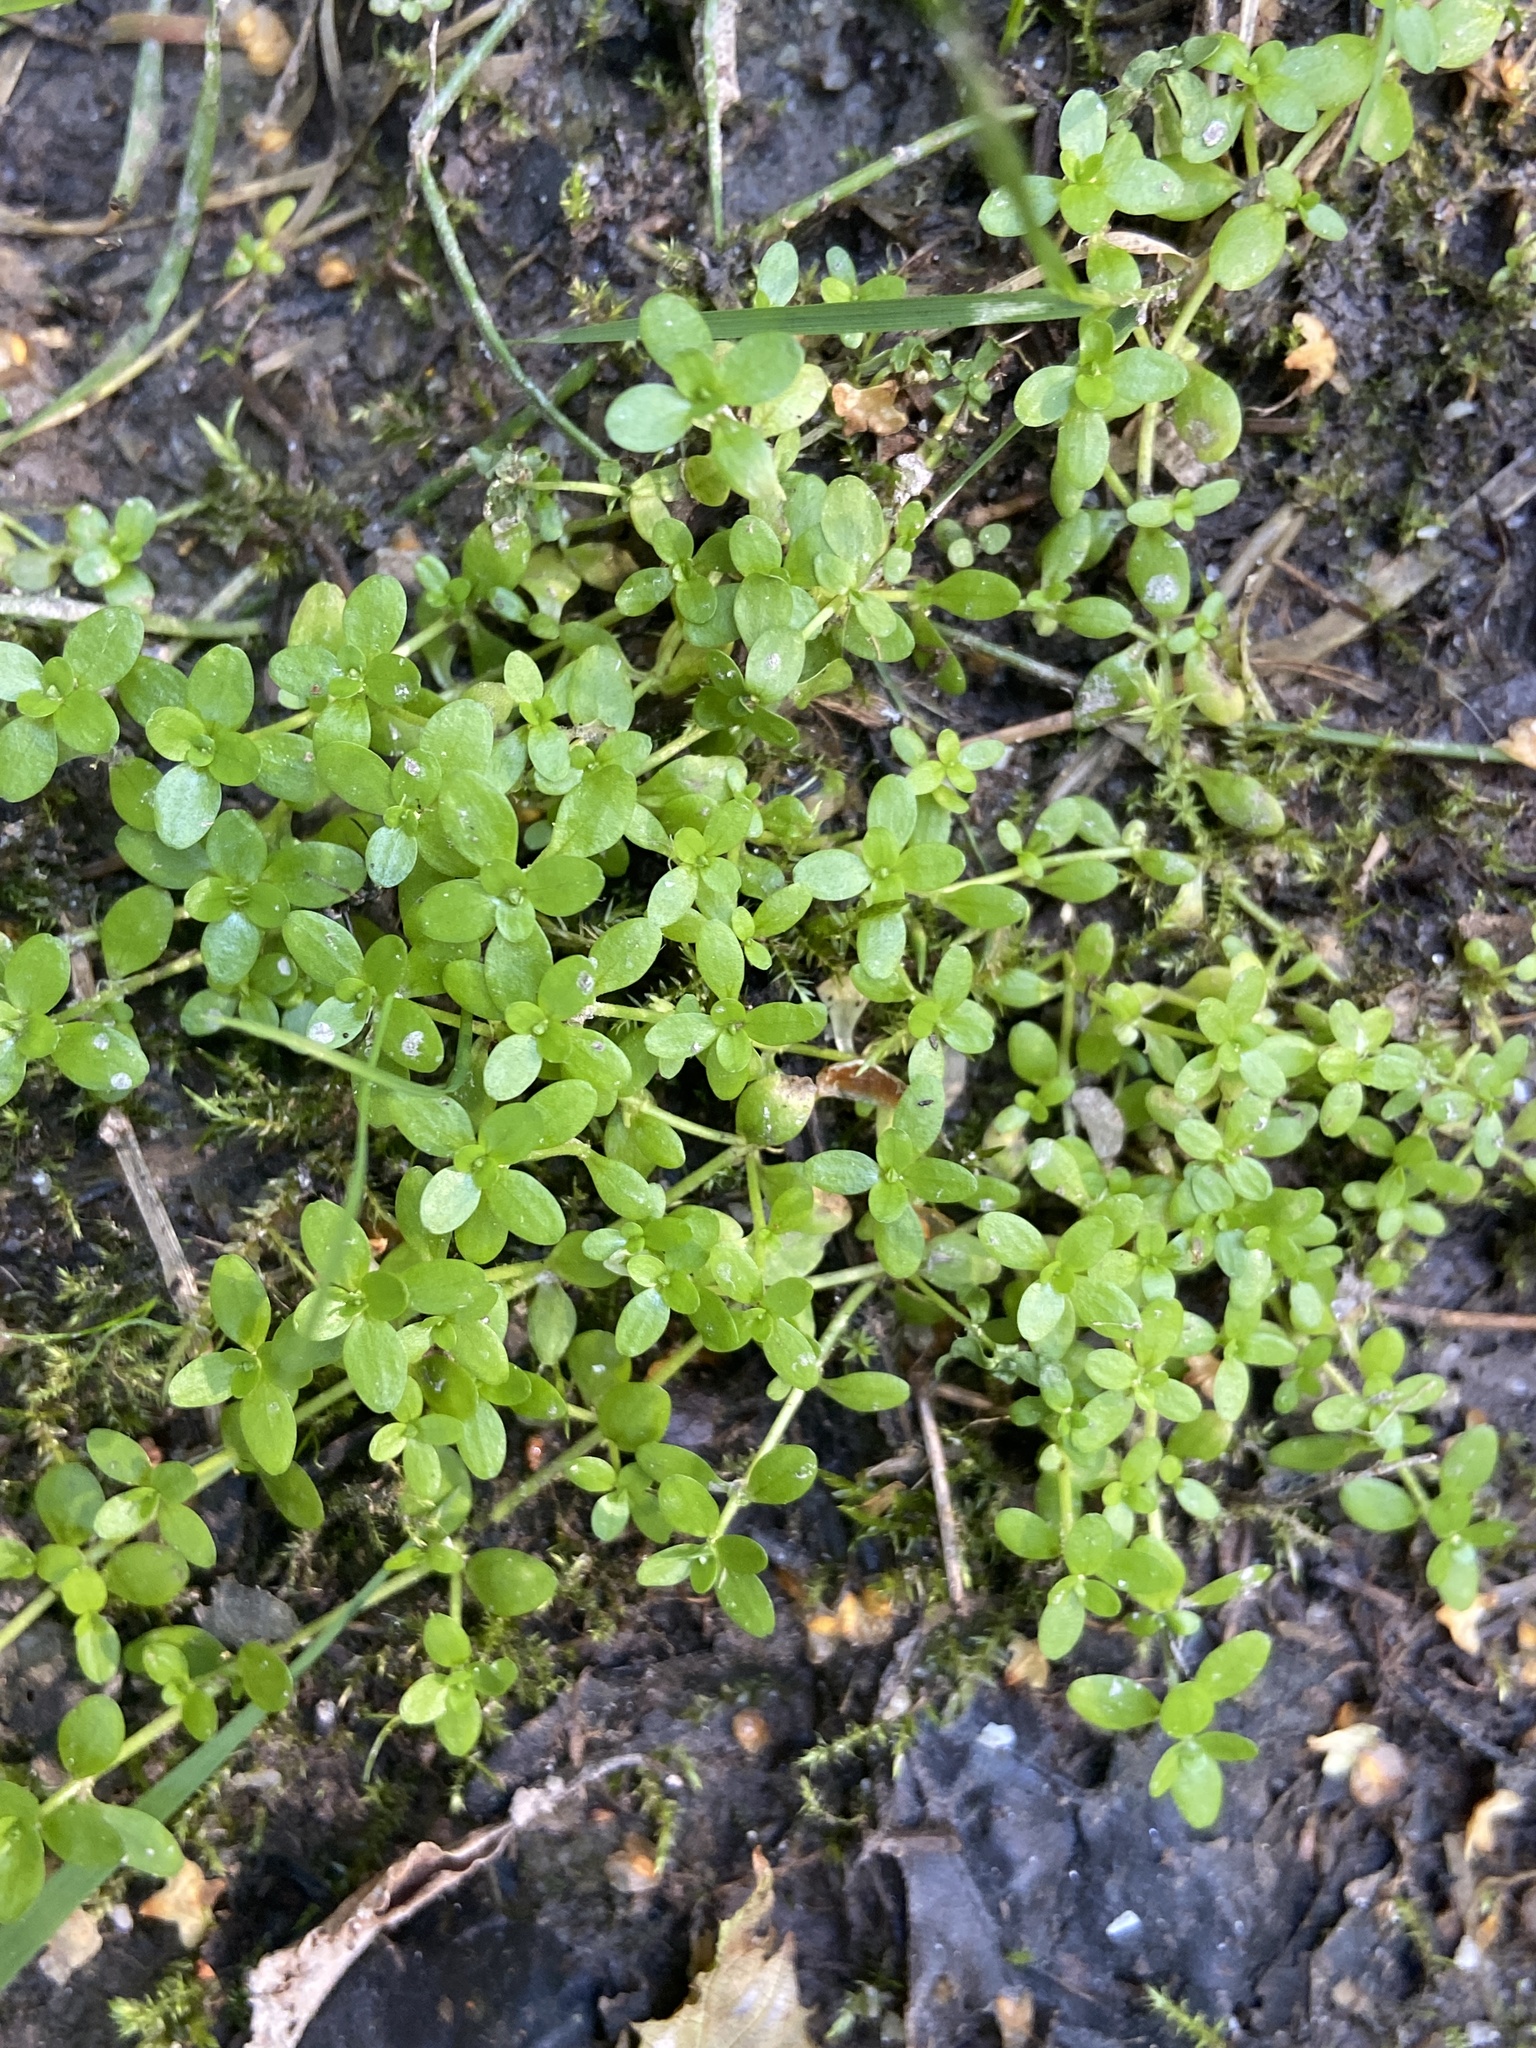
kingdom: Plantae
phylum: Tracheophyta
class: Magnoliopsida
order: Lamiales
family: Plantaginaceae
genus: Callitriche
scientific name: Callitriche stagnalis
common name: Common water-starwort
